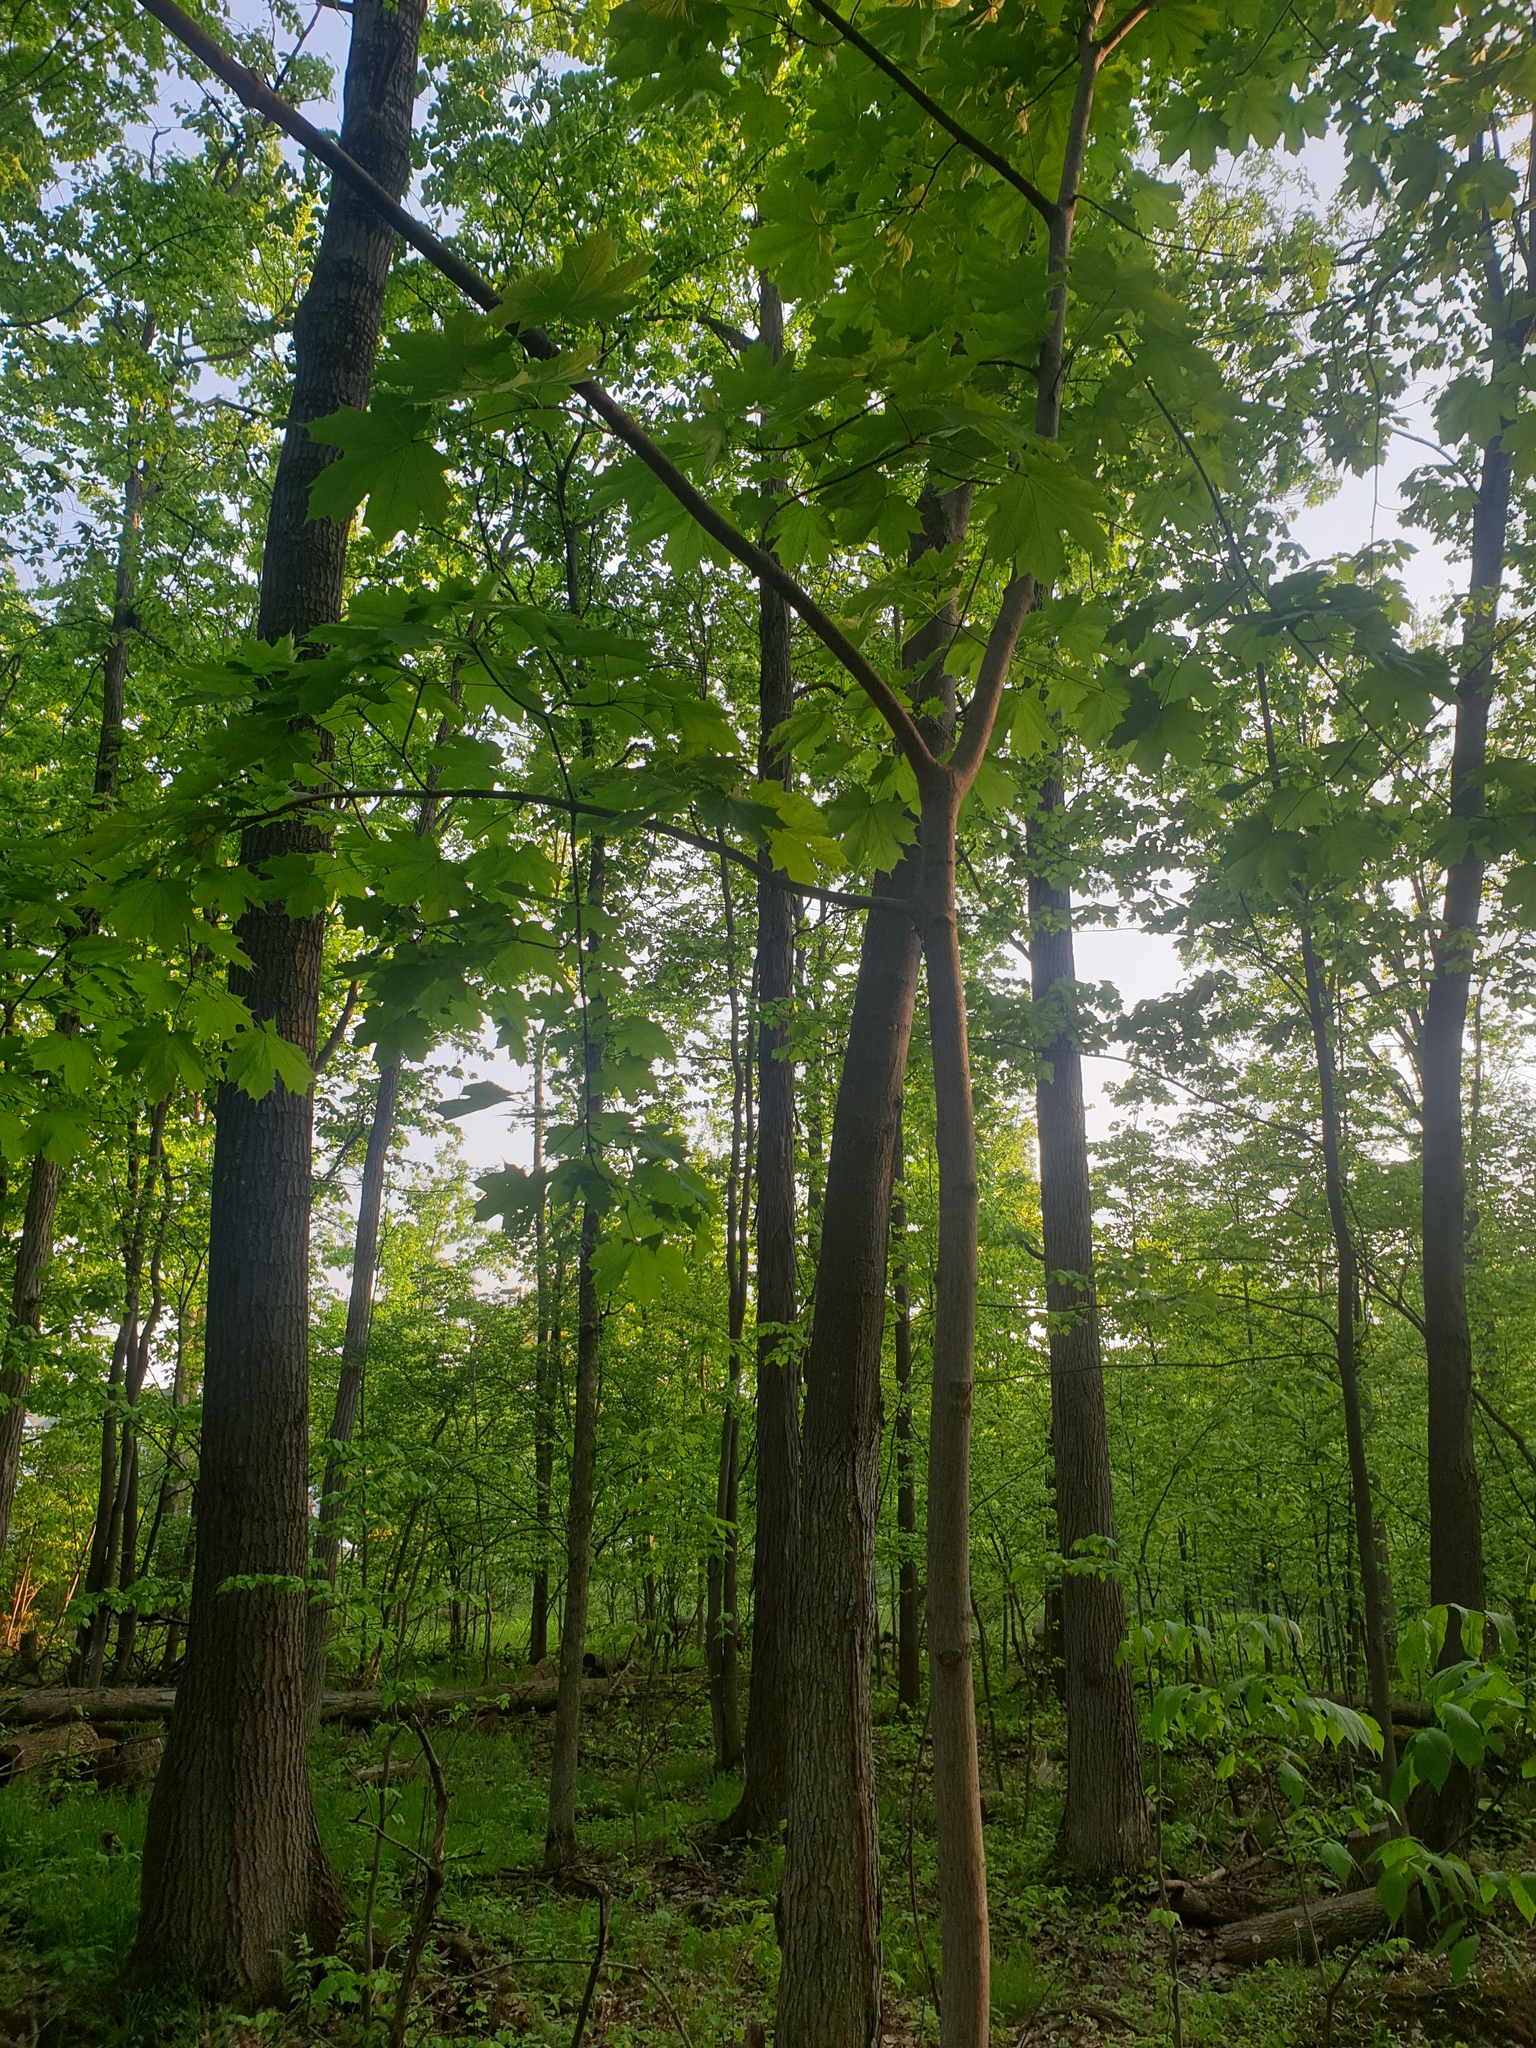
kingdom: Plantae
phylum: Tracheophyta
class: Magnoliopsida
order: Sapindales
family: Sapindaceae
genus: Acer
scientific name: Acer platanoides
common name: Norway maple
